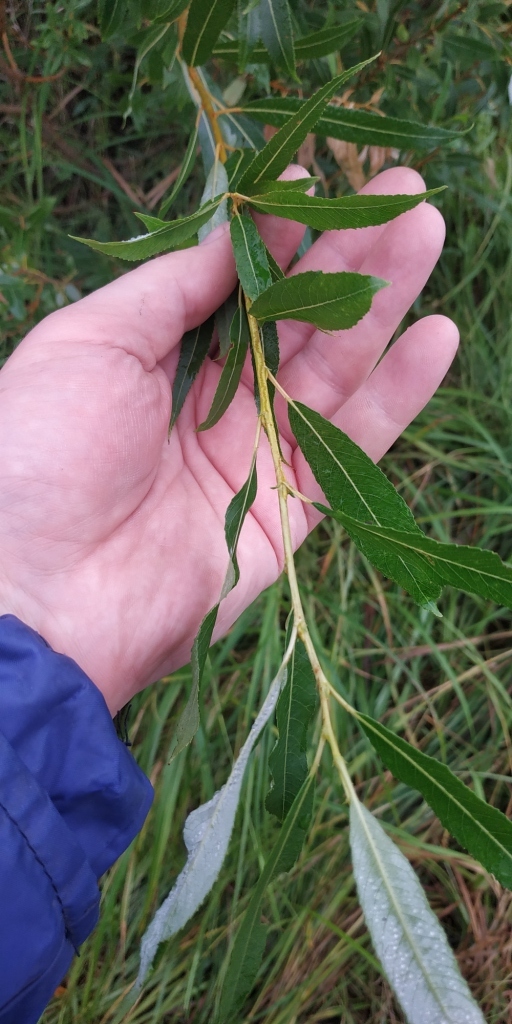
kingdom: Plantae
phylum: Tracheophyta
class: Magnoliopsida
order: Malpighiales
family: Salicaceae
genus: Salix
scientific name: Salix triandra
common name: Almond willow
